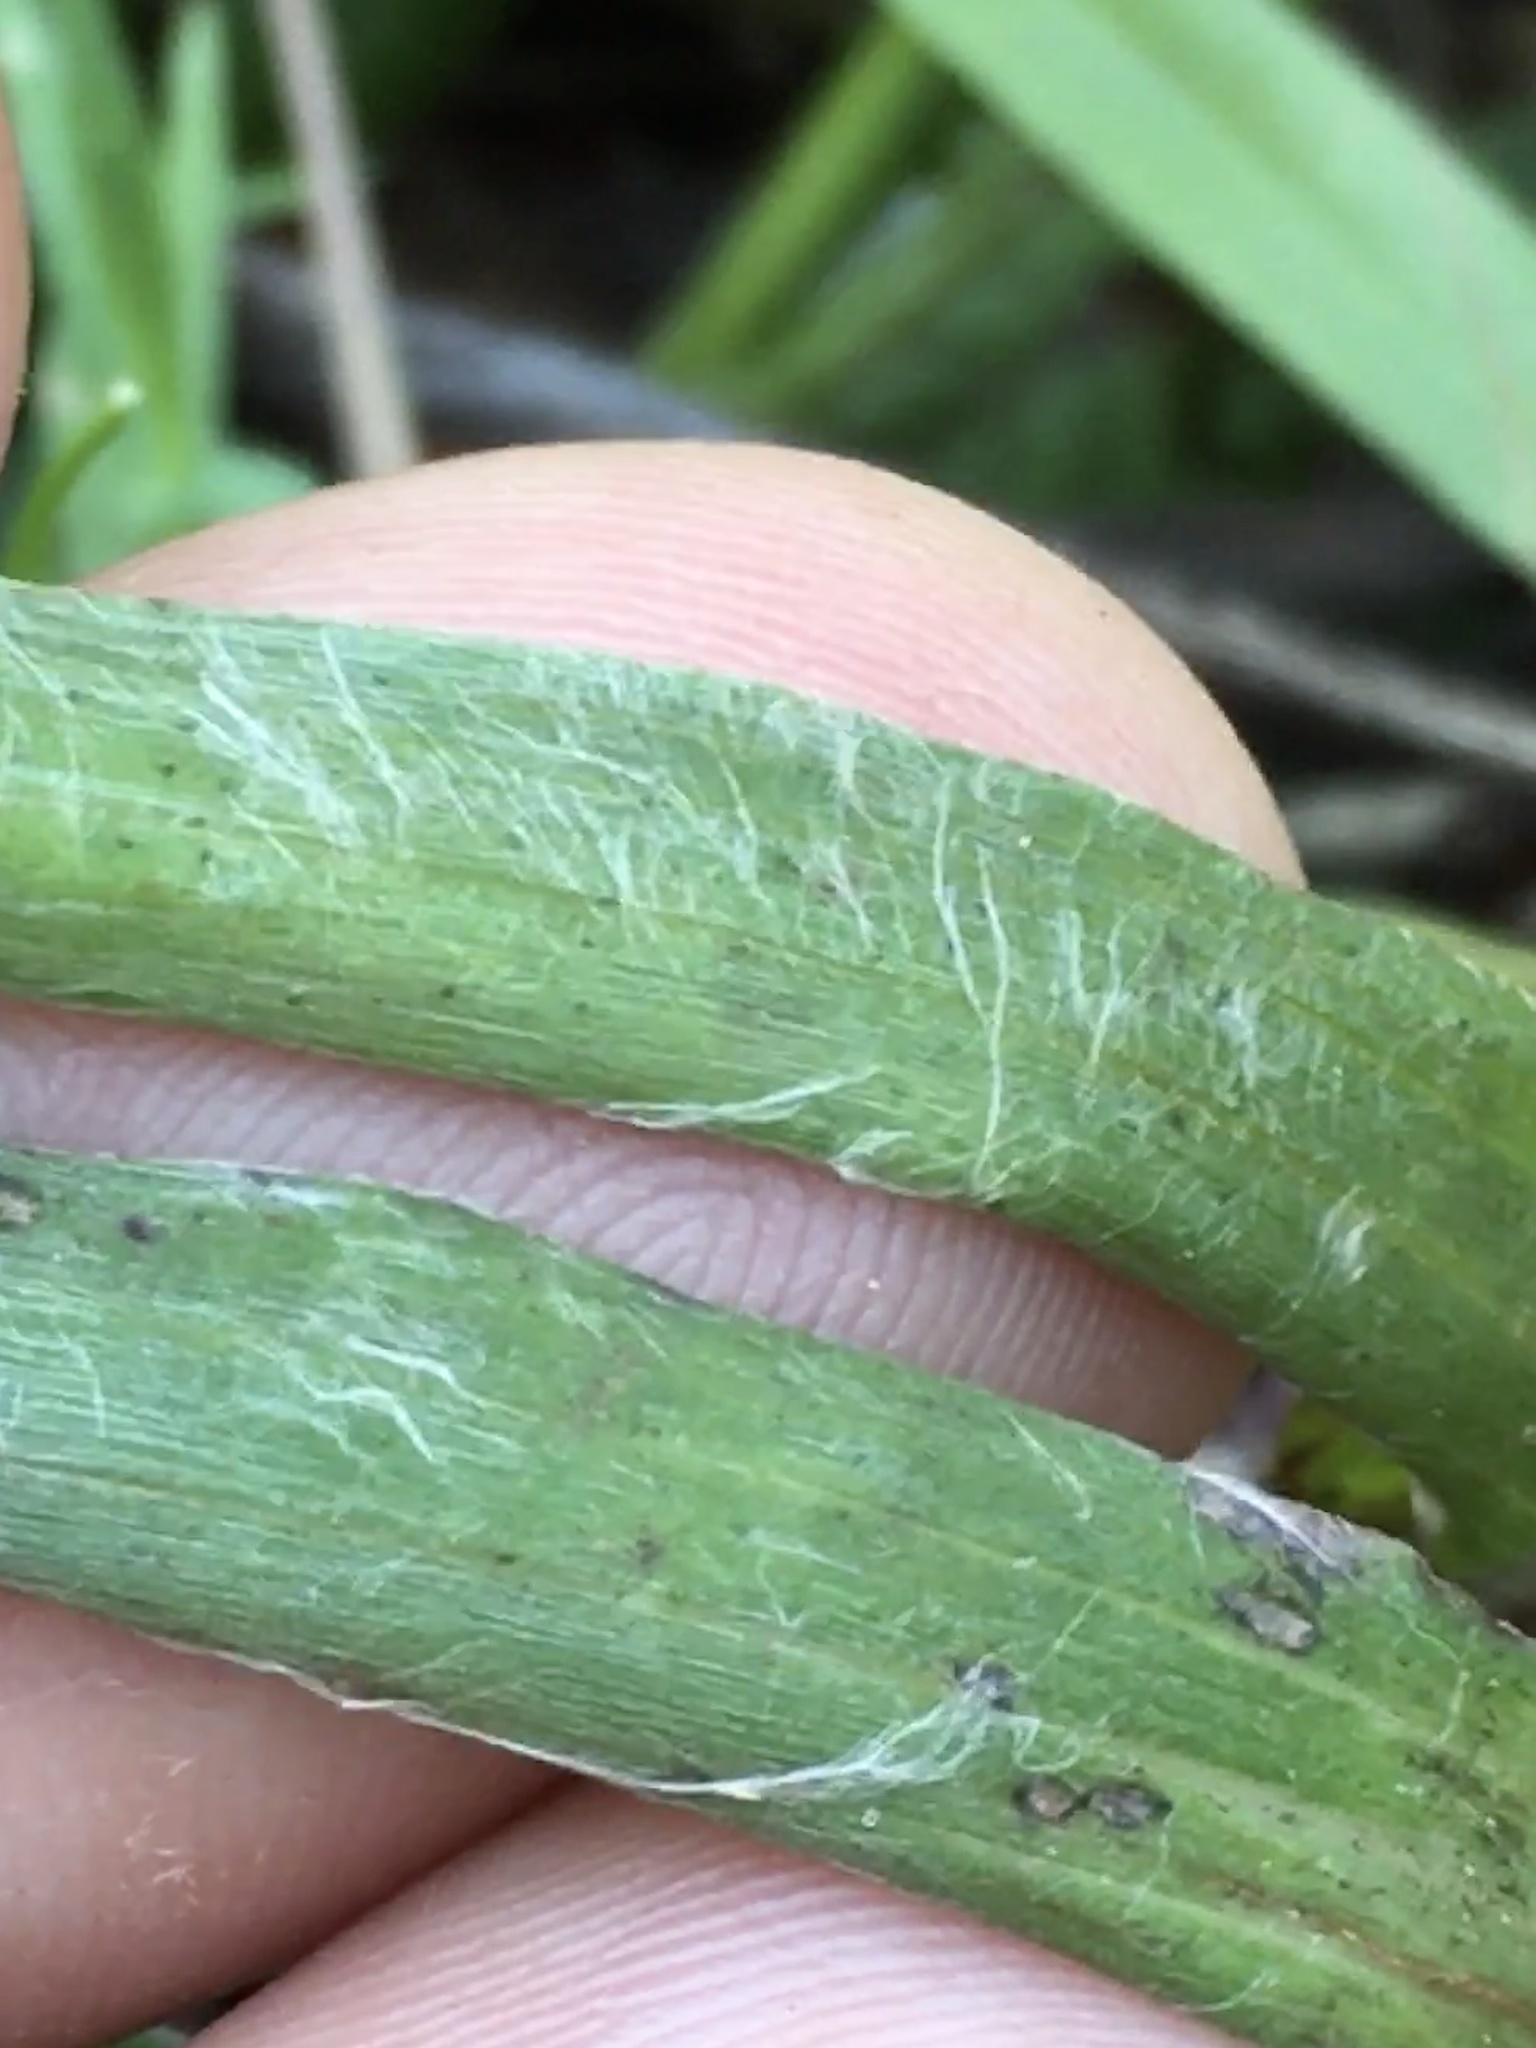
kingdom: Plantae
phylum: Tracheophyta
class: Magnoliopsida
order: Asterales
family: Asteraceae
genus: Pityopsis
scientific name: Pityopsis aspera
